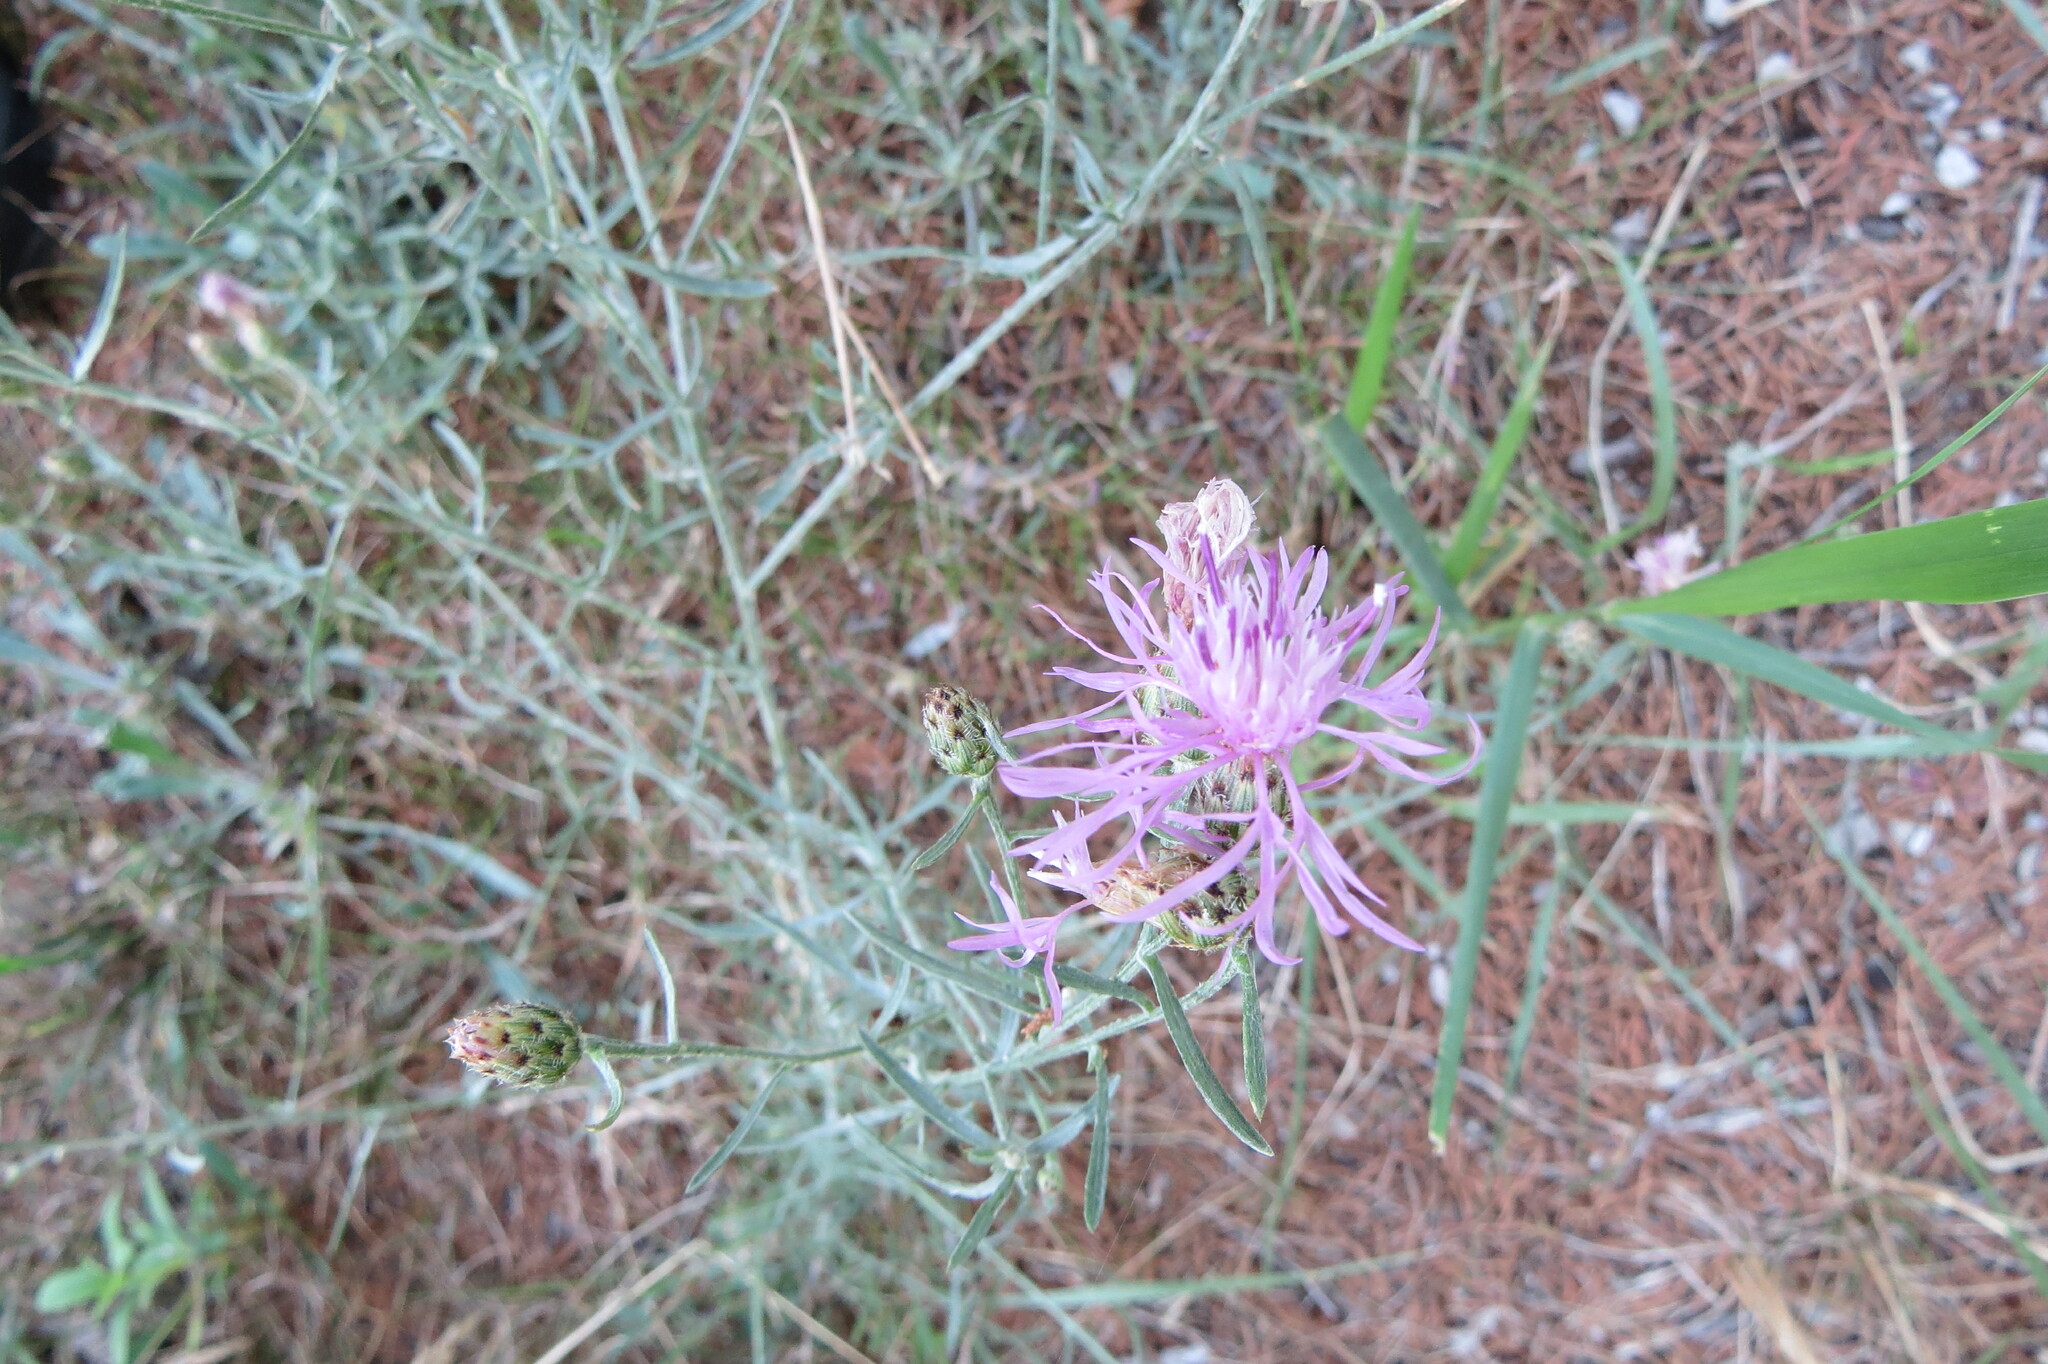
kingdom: Plantae
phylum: Tracheophyta
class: Magnoliopsida
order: Asterales
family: Asteraceae
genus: Centaurea
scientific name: Centaurea stoebe
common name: Spotted knapweed
